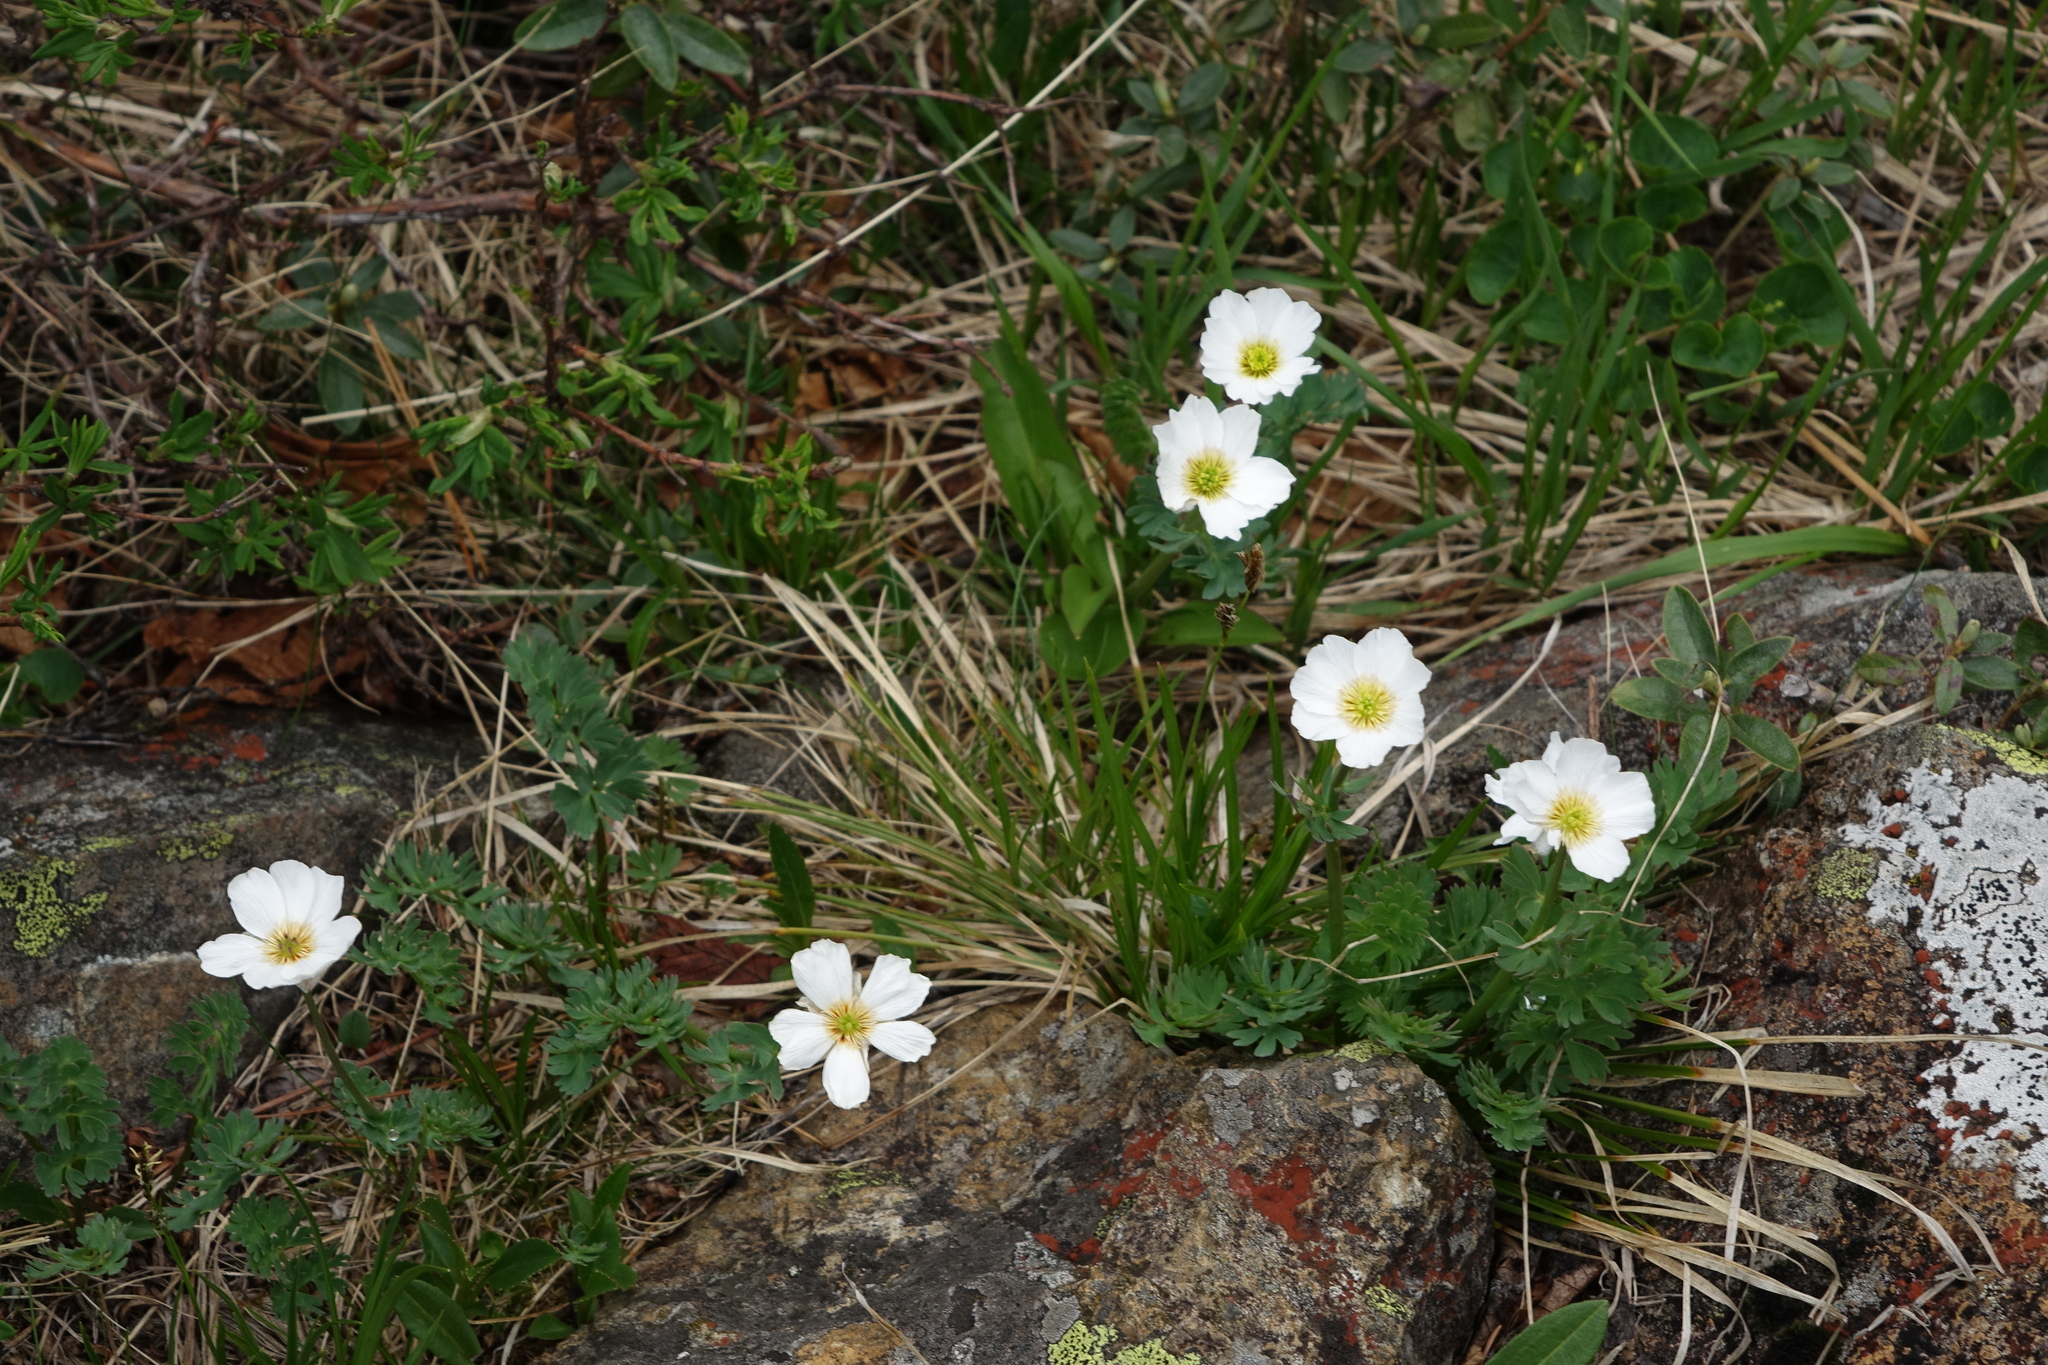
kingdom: Plantae
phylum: Tracheophyta
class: Magnoliopsida
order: Ranunculales
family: Ranunculaceae
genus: Callianthemum
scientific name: Callianthemum sajanense
